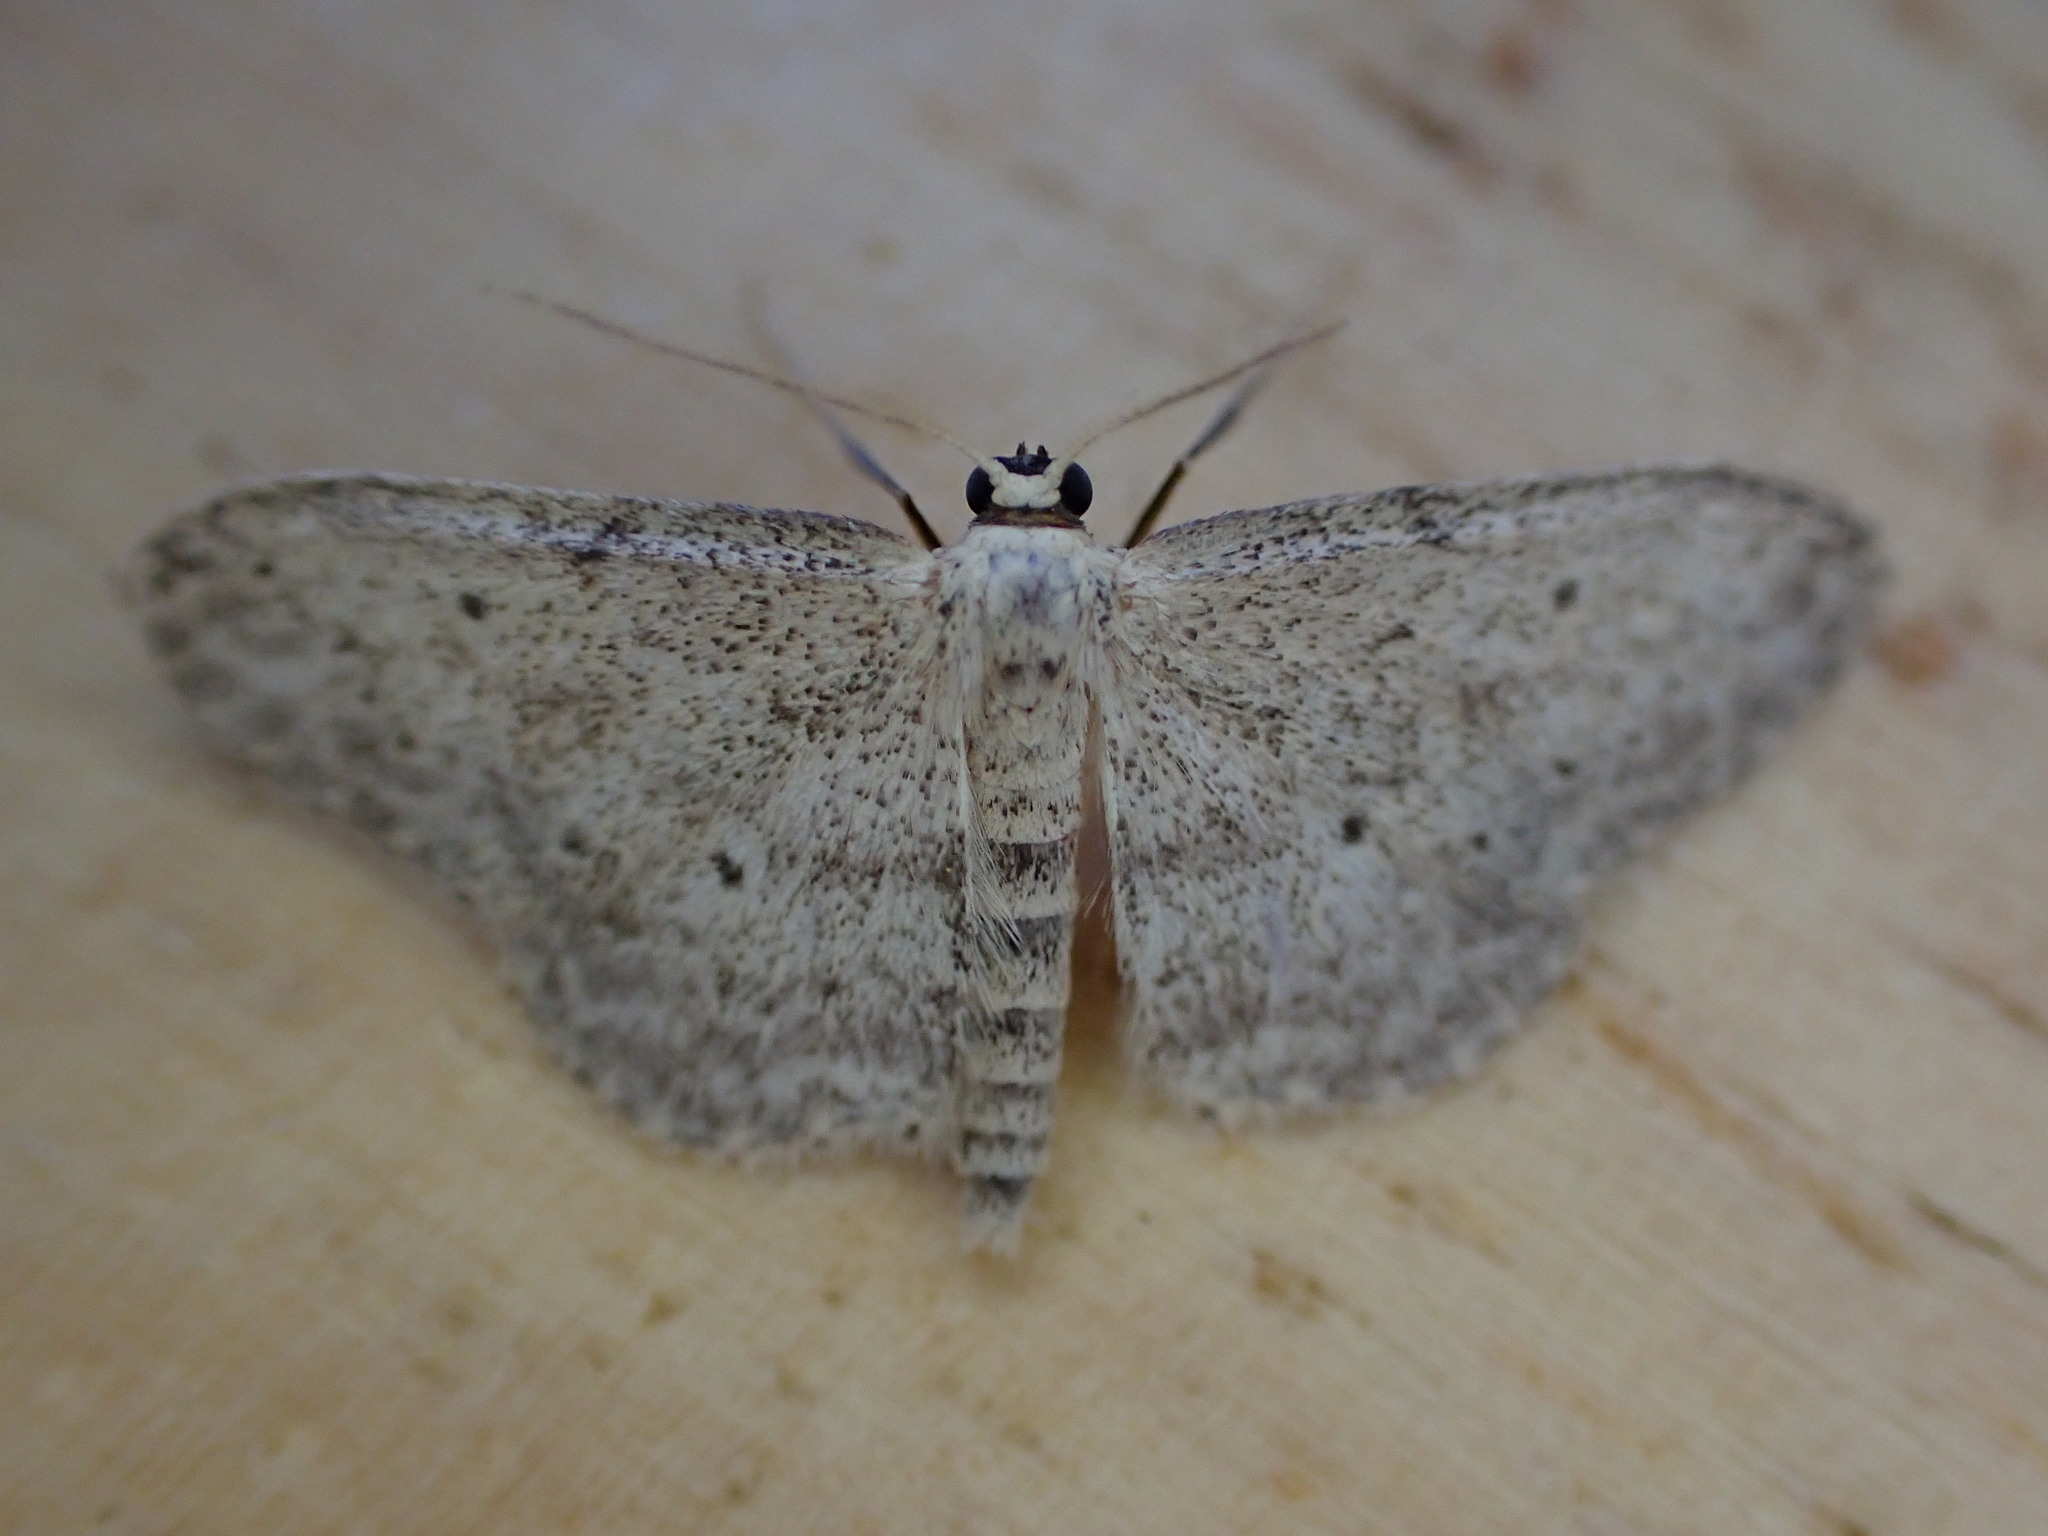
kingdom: Animalia
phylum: Arthropoda
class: Insecta
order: Lepidoptera
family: Geometridae
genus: Idaea
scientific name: Idaea seriata
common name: Small dusty wave
